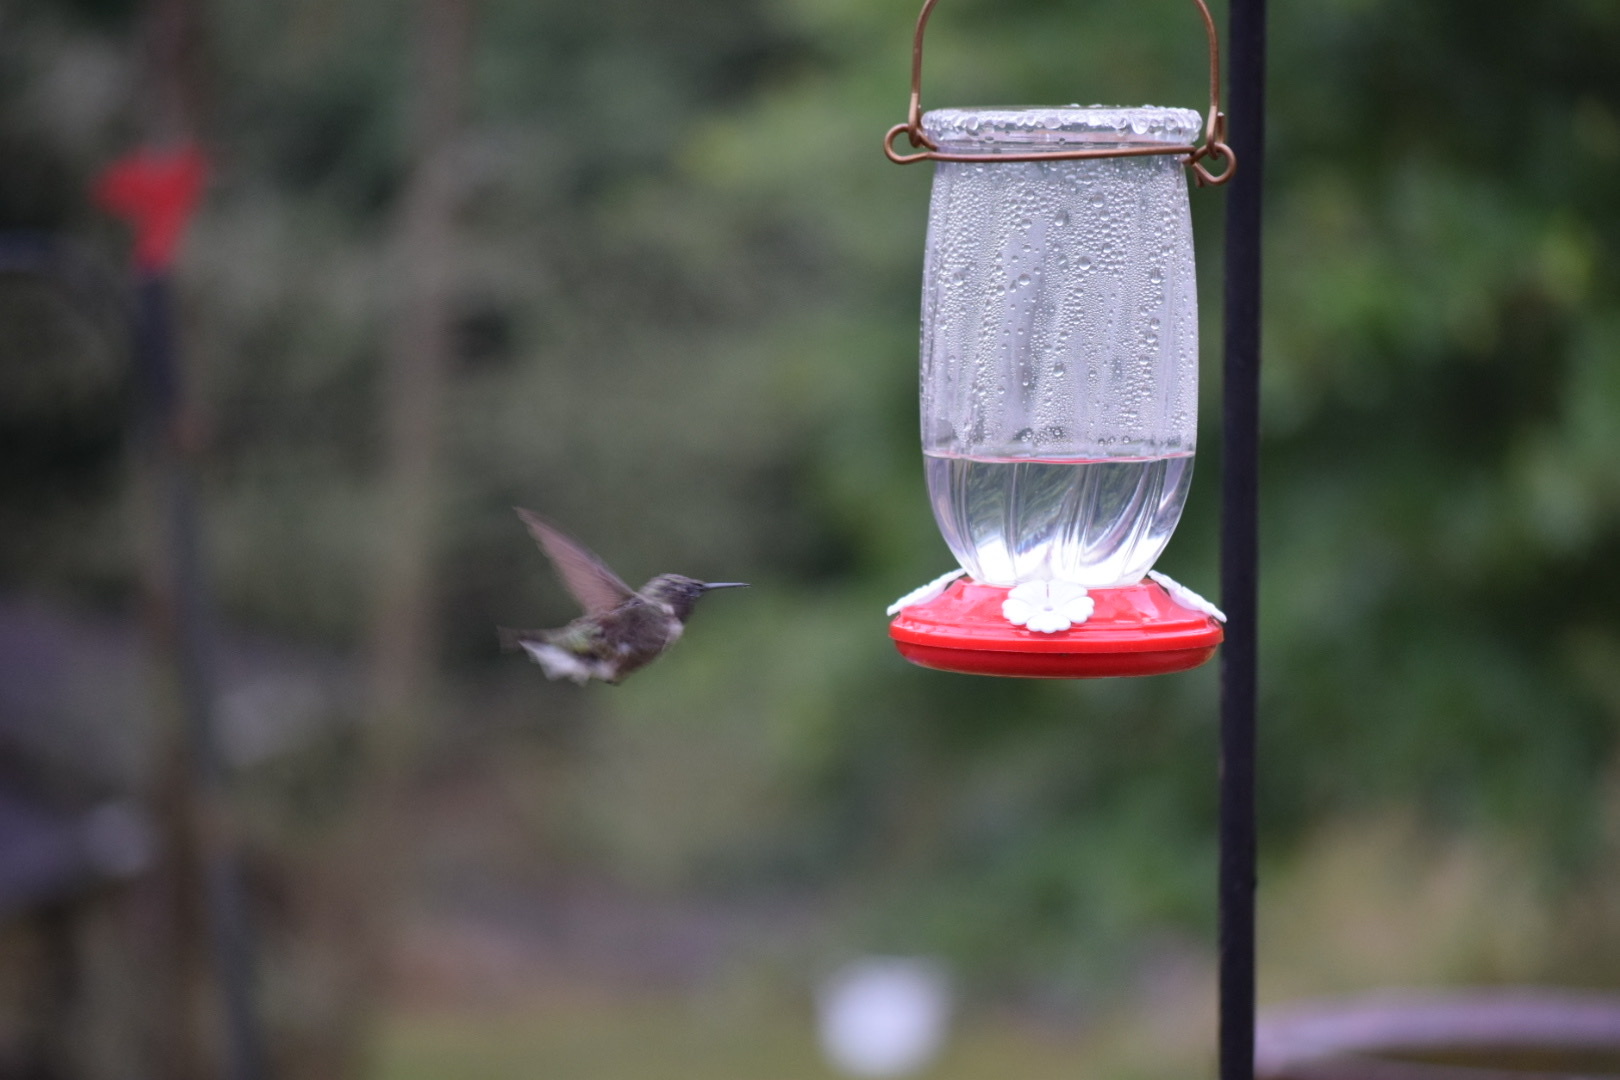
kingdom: Animalia
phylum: Chordata
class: Aves
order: Apodiformes
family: Trochilidae
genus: Archilochus
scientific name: Archilochus colubris
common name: Ruby-throated hummingbird
